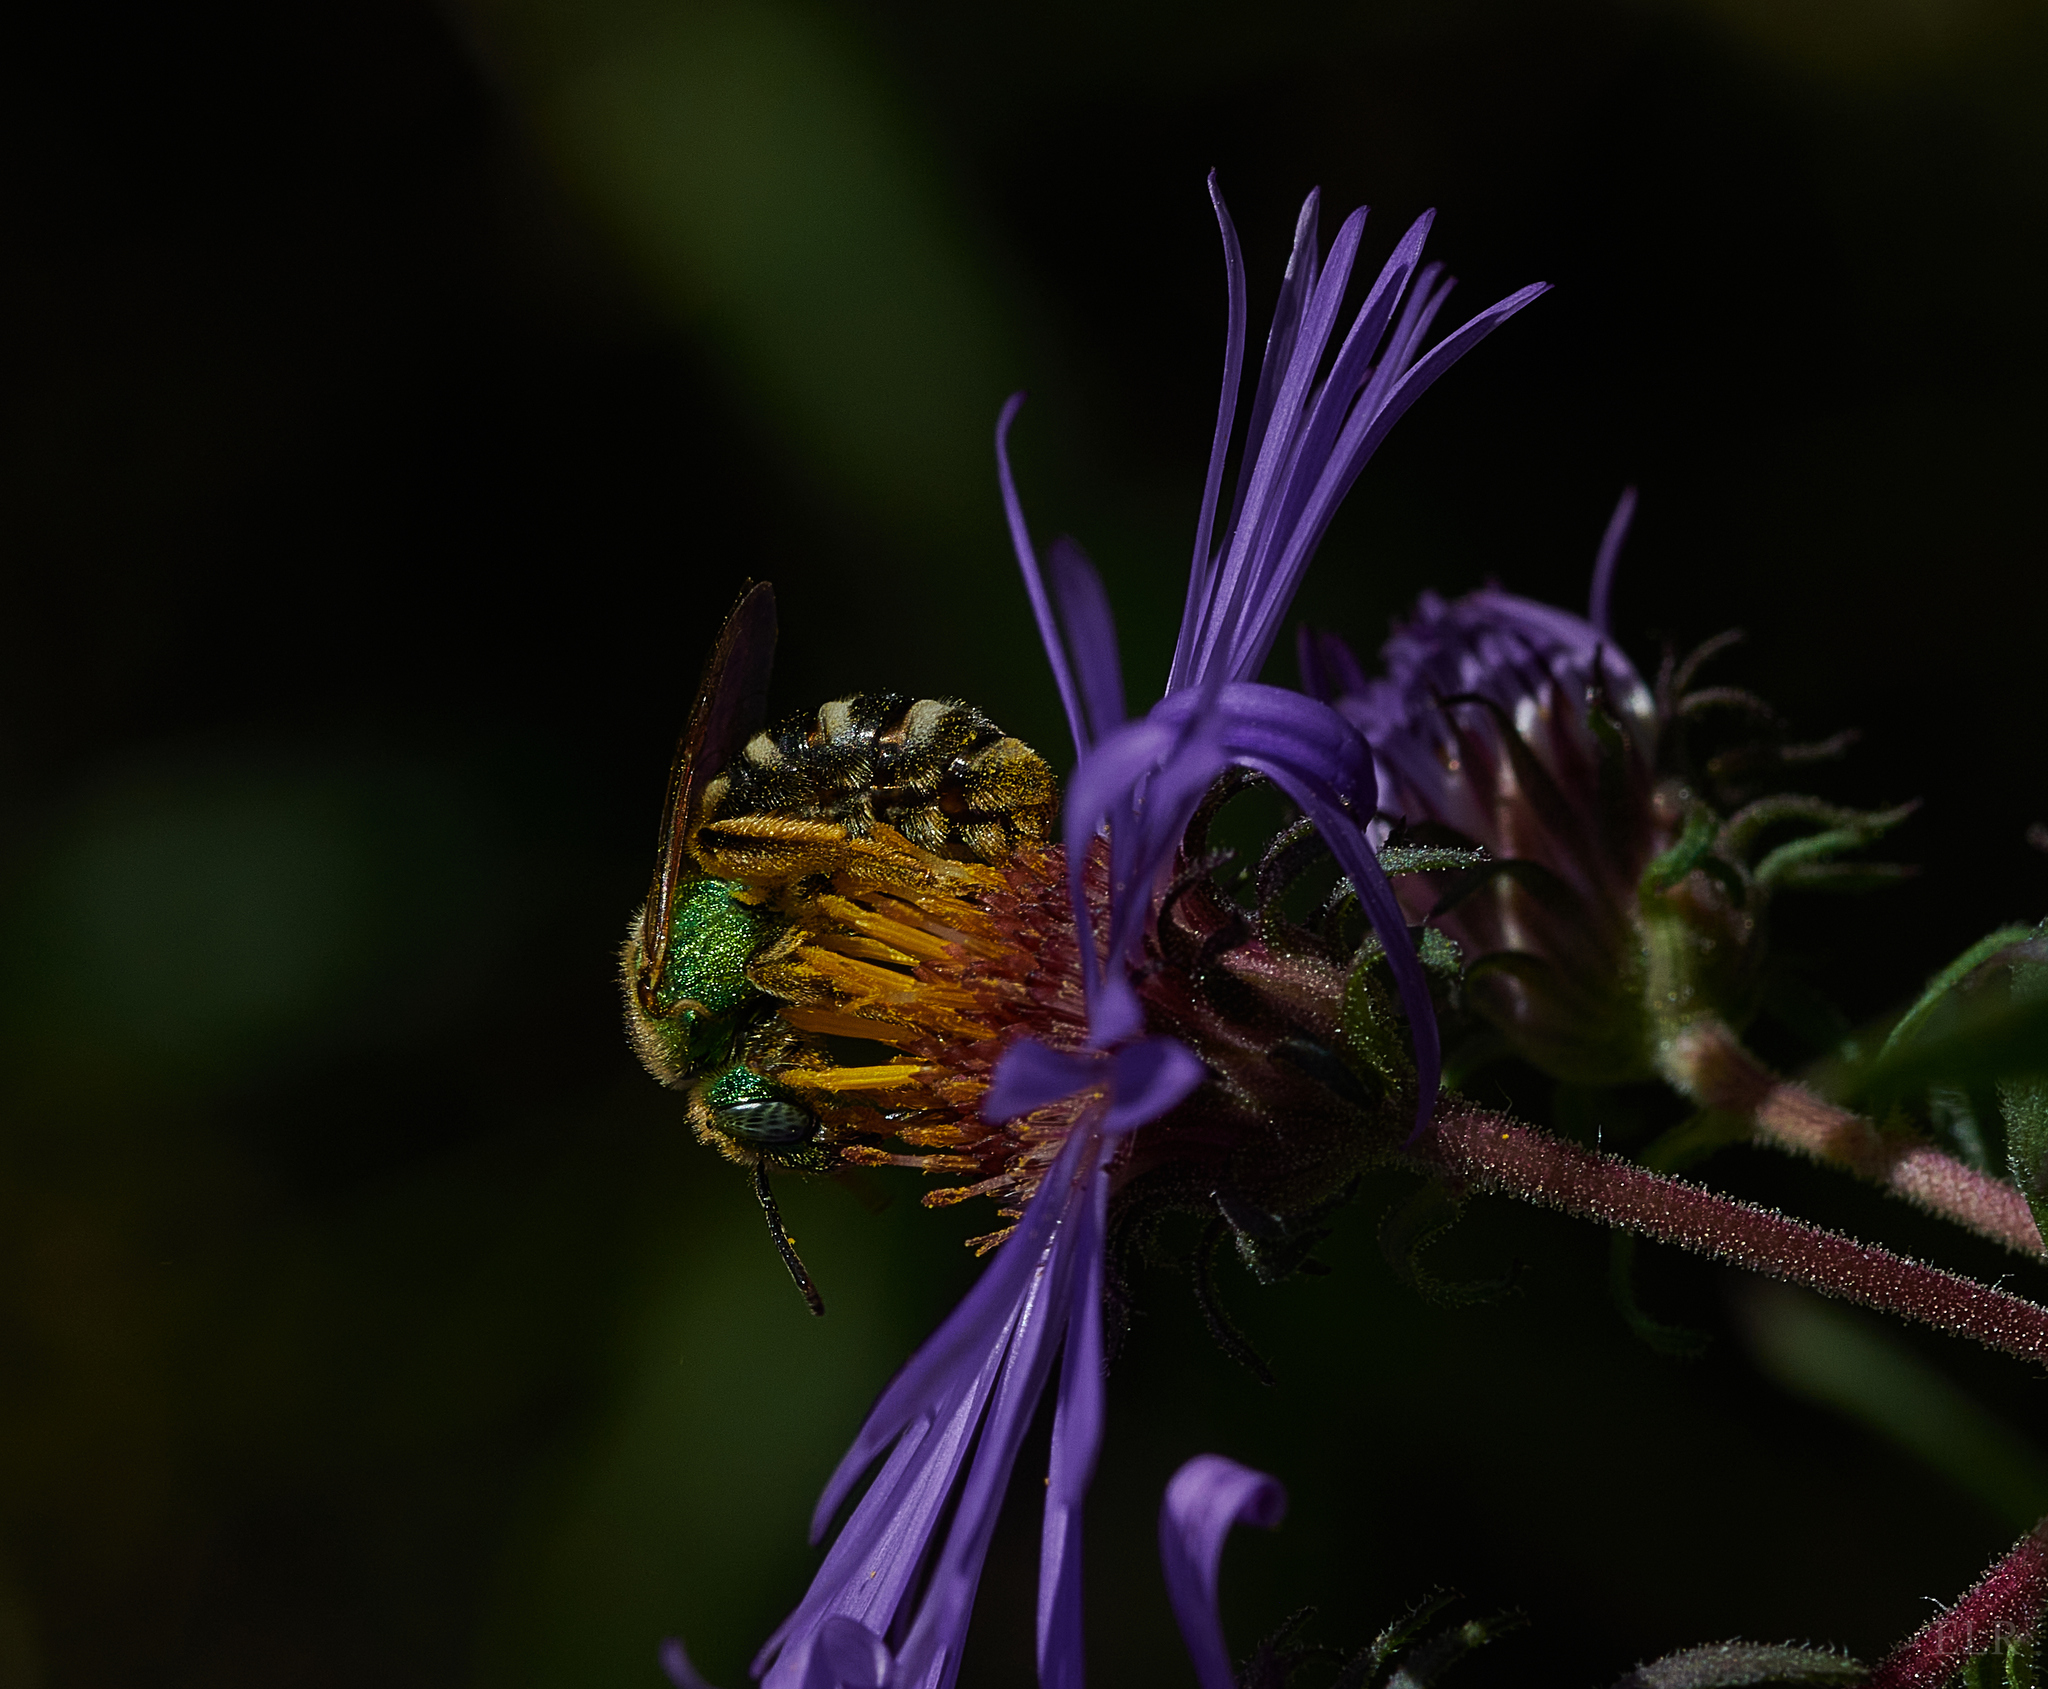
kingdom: Animalia
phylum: Arthropoda
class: Insecta
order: Hymenoptera
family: Halictidae
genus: Agapostemon
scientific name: Agapostemon virescens
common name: Bicolored striped sweat bee
